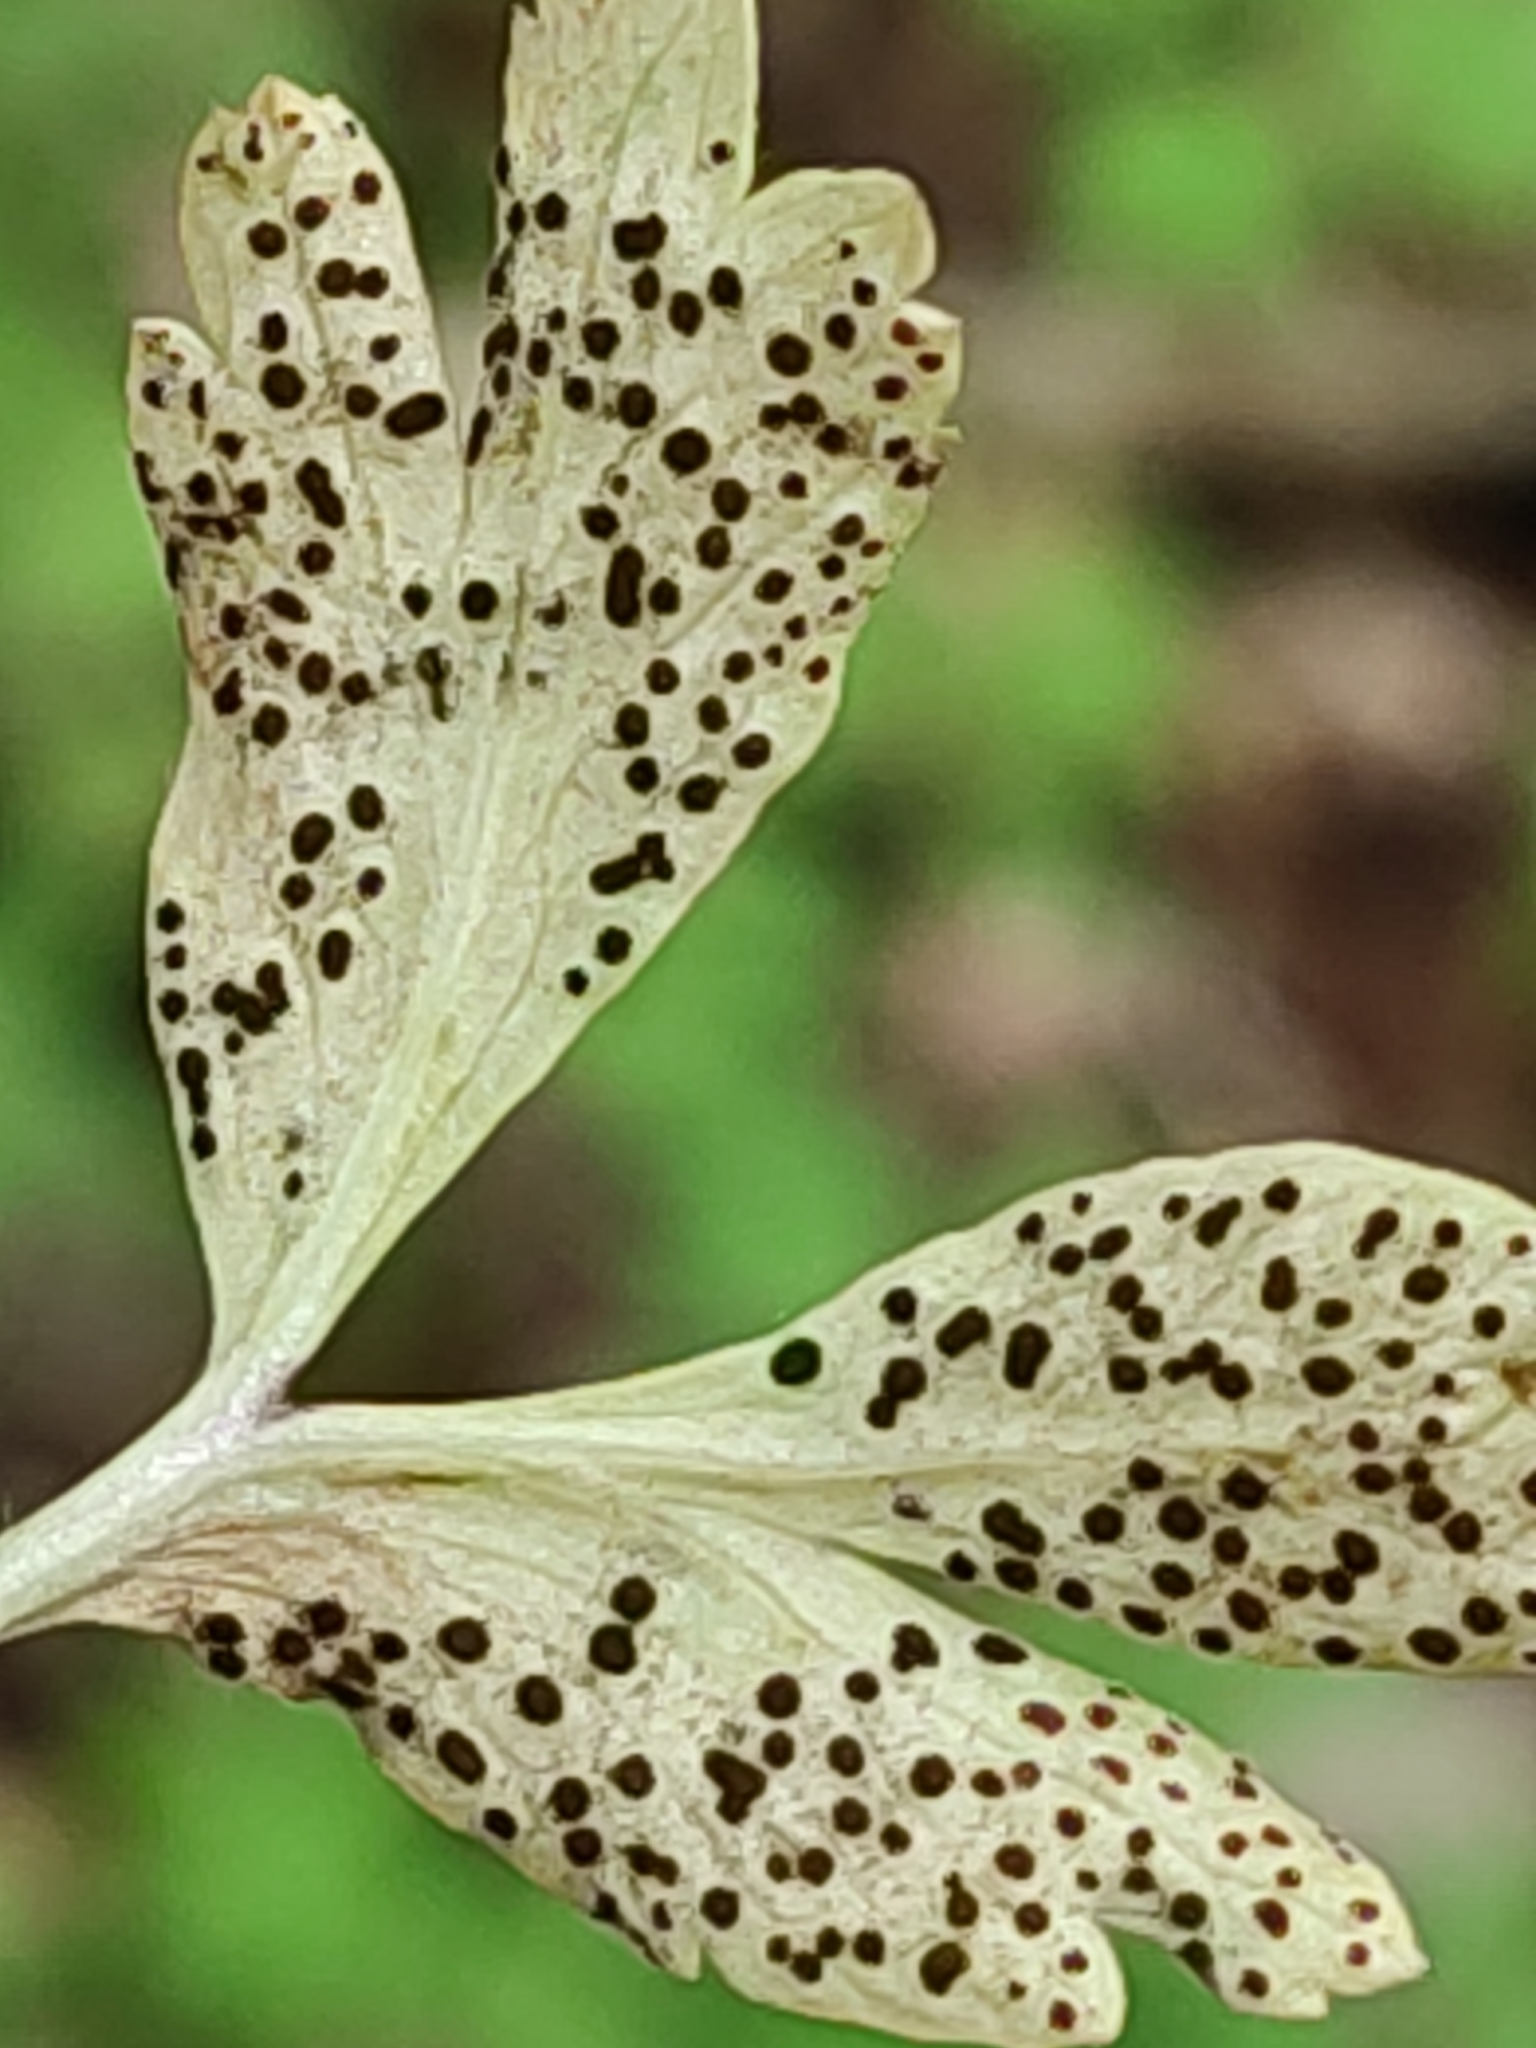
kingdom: Fungi
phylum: Basidiomycota
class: Pucciniomycetes
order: Pucciniales
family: Tranzscheliaceae
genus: Tranzschelia
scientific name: Tranzschelia anemones
